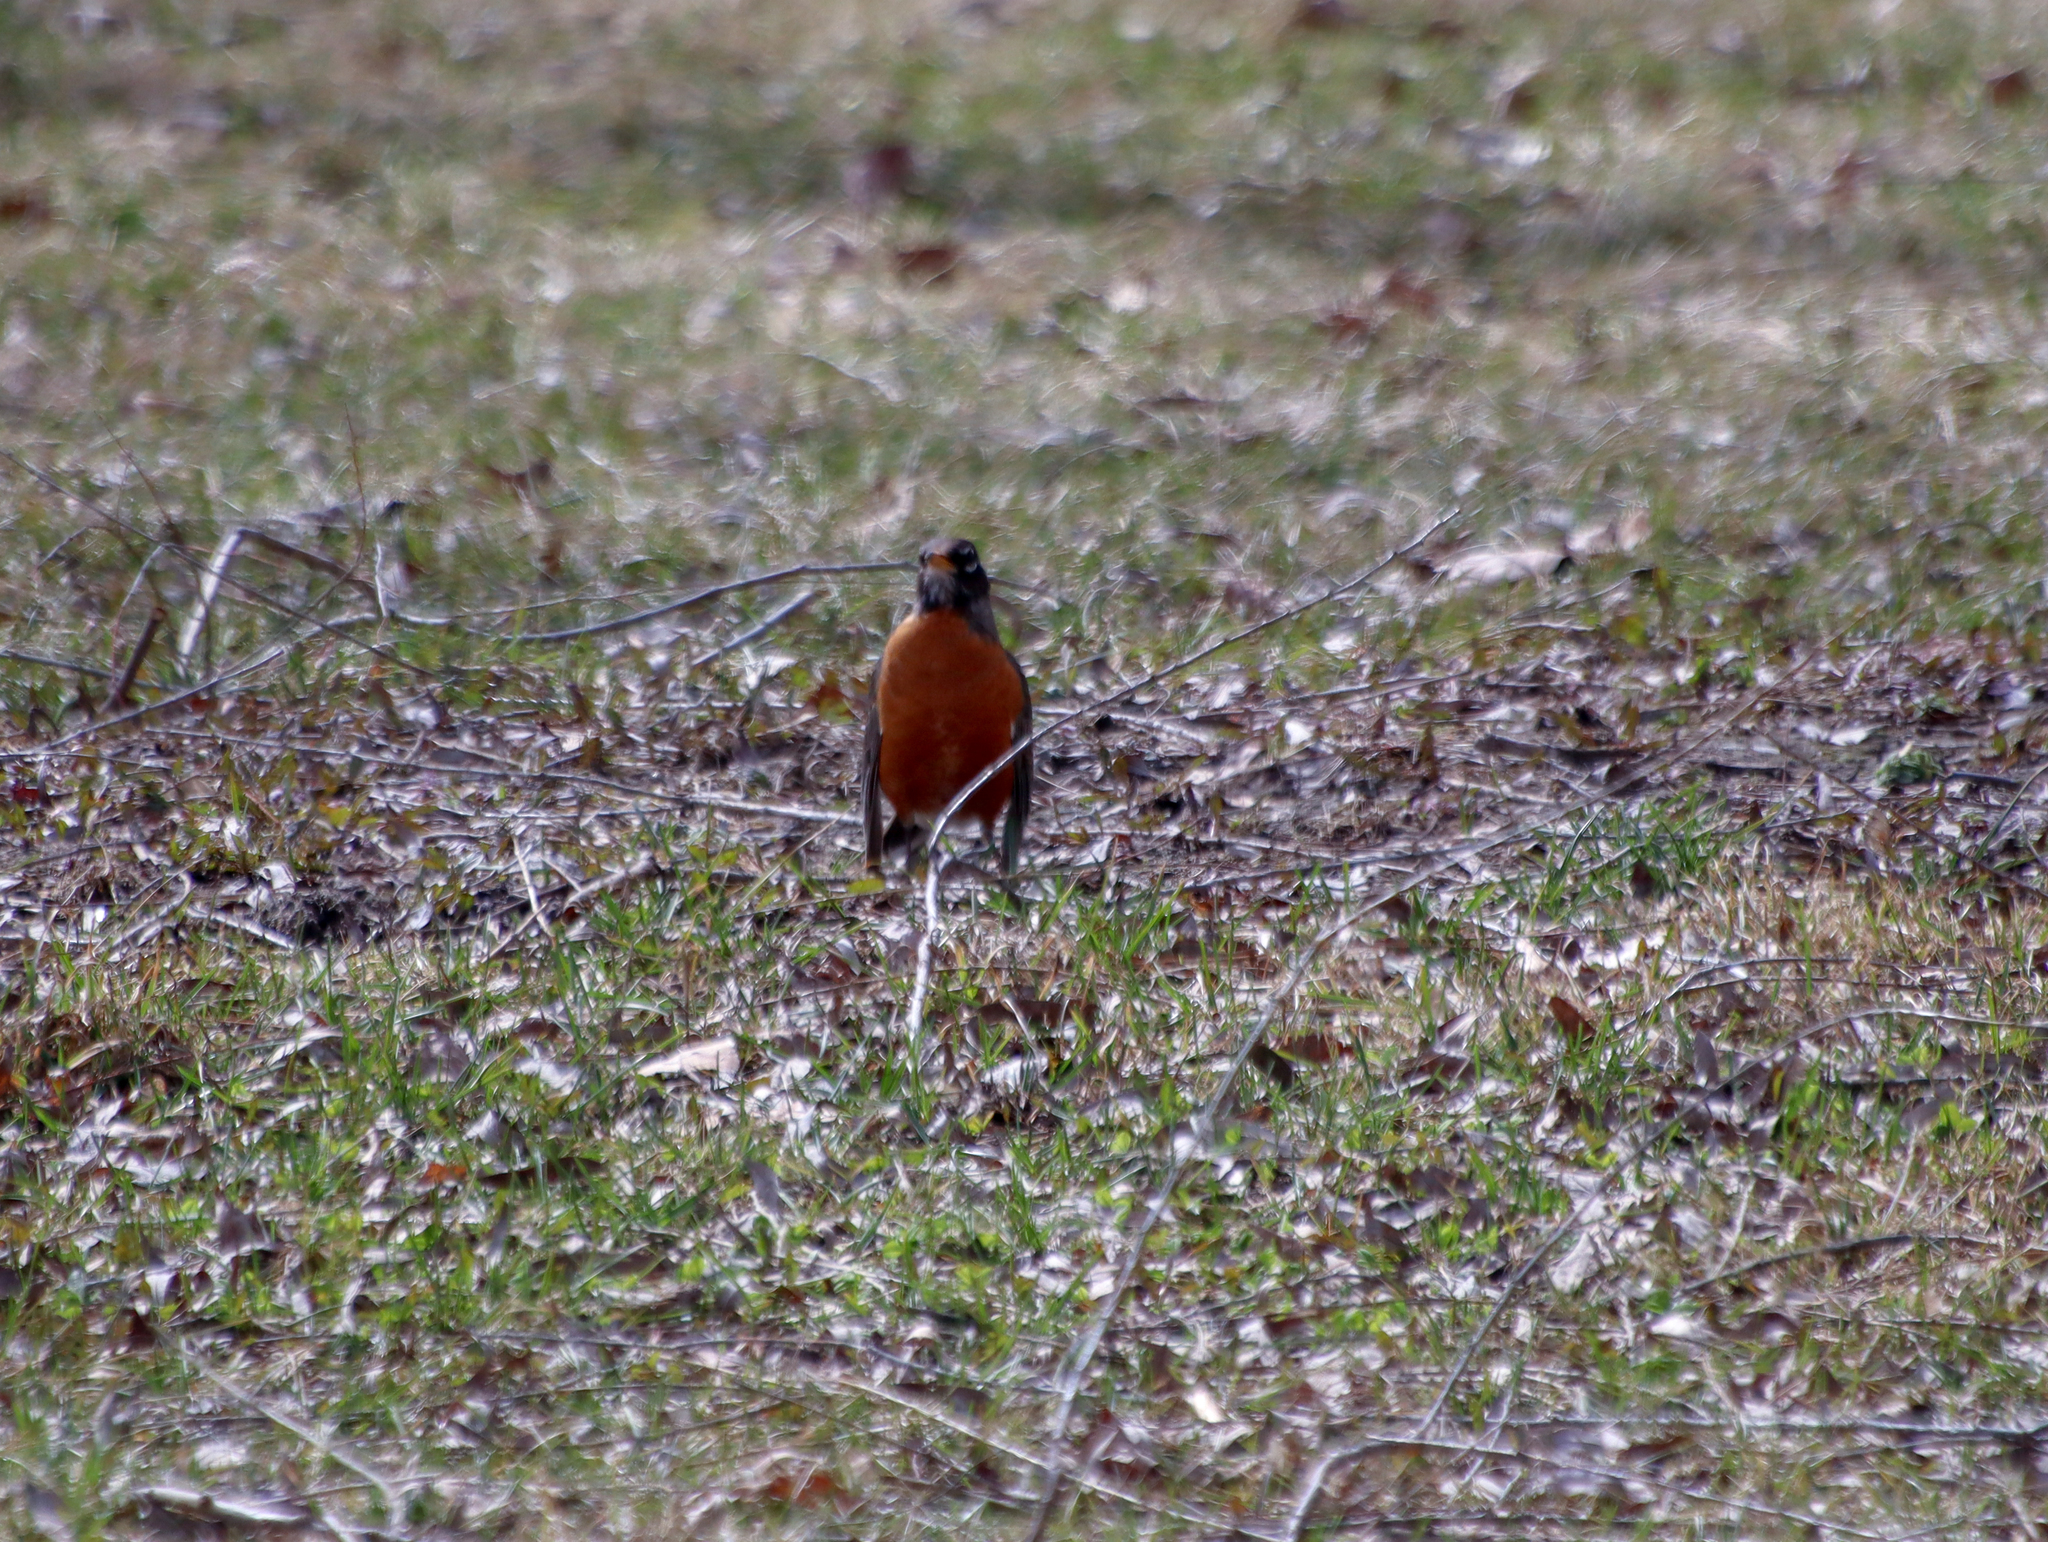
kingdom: Animalia
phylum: Chordata
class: Aves
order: Passeriformes
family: Turdidae
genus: Turdus
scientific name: Turdus migratorius
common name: American robin
